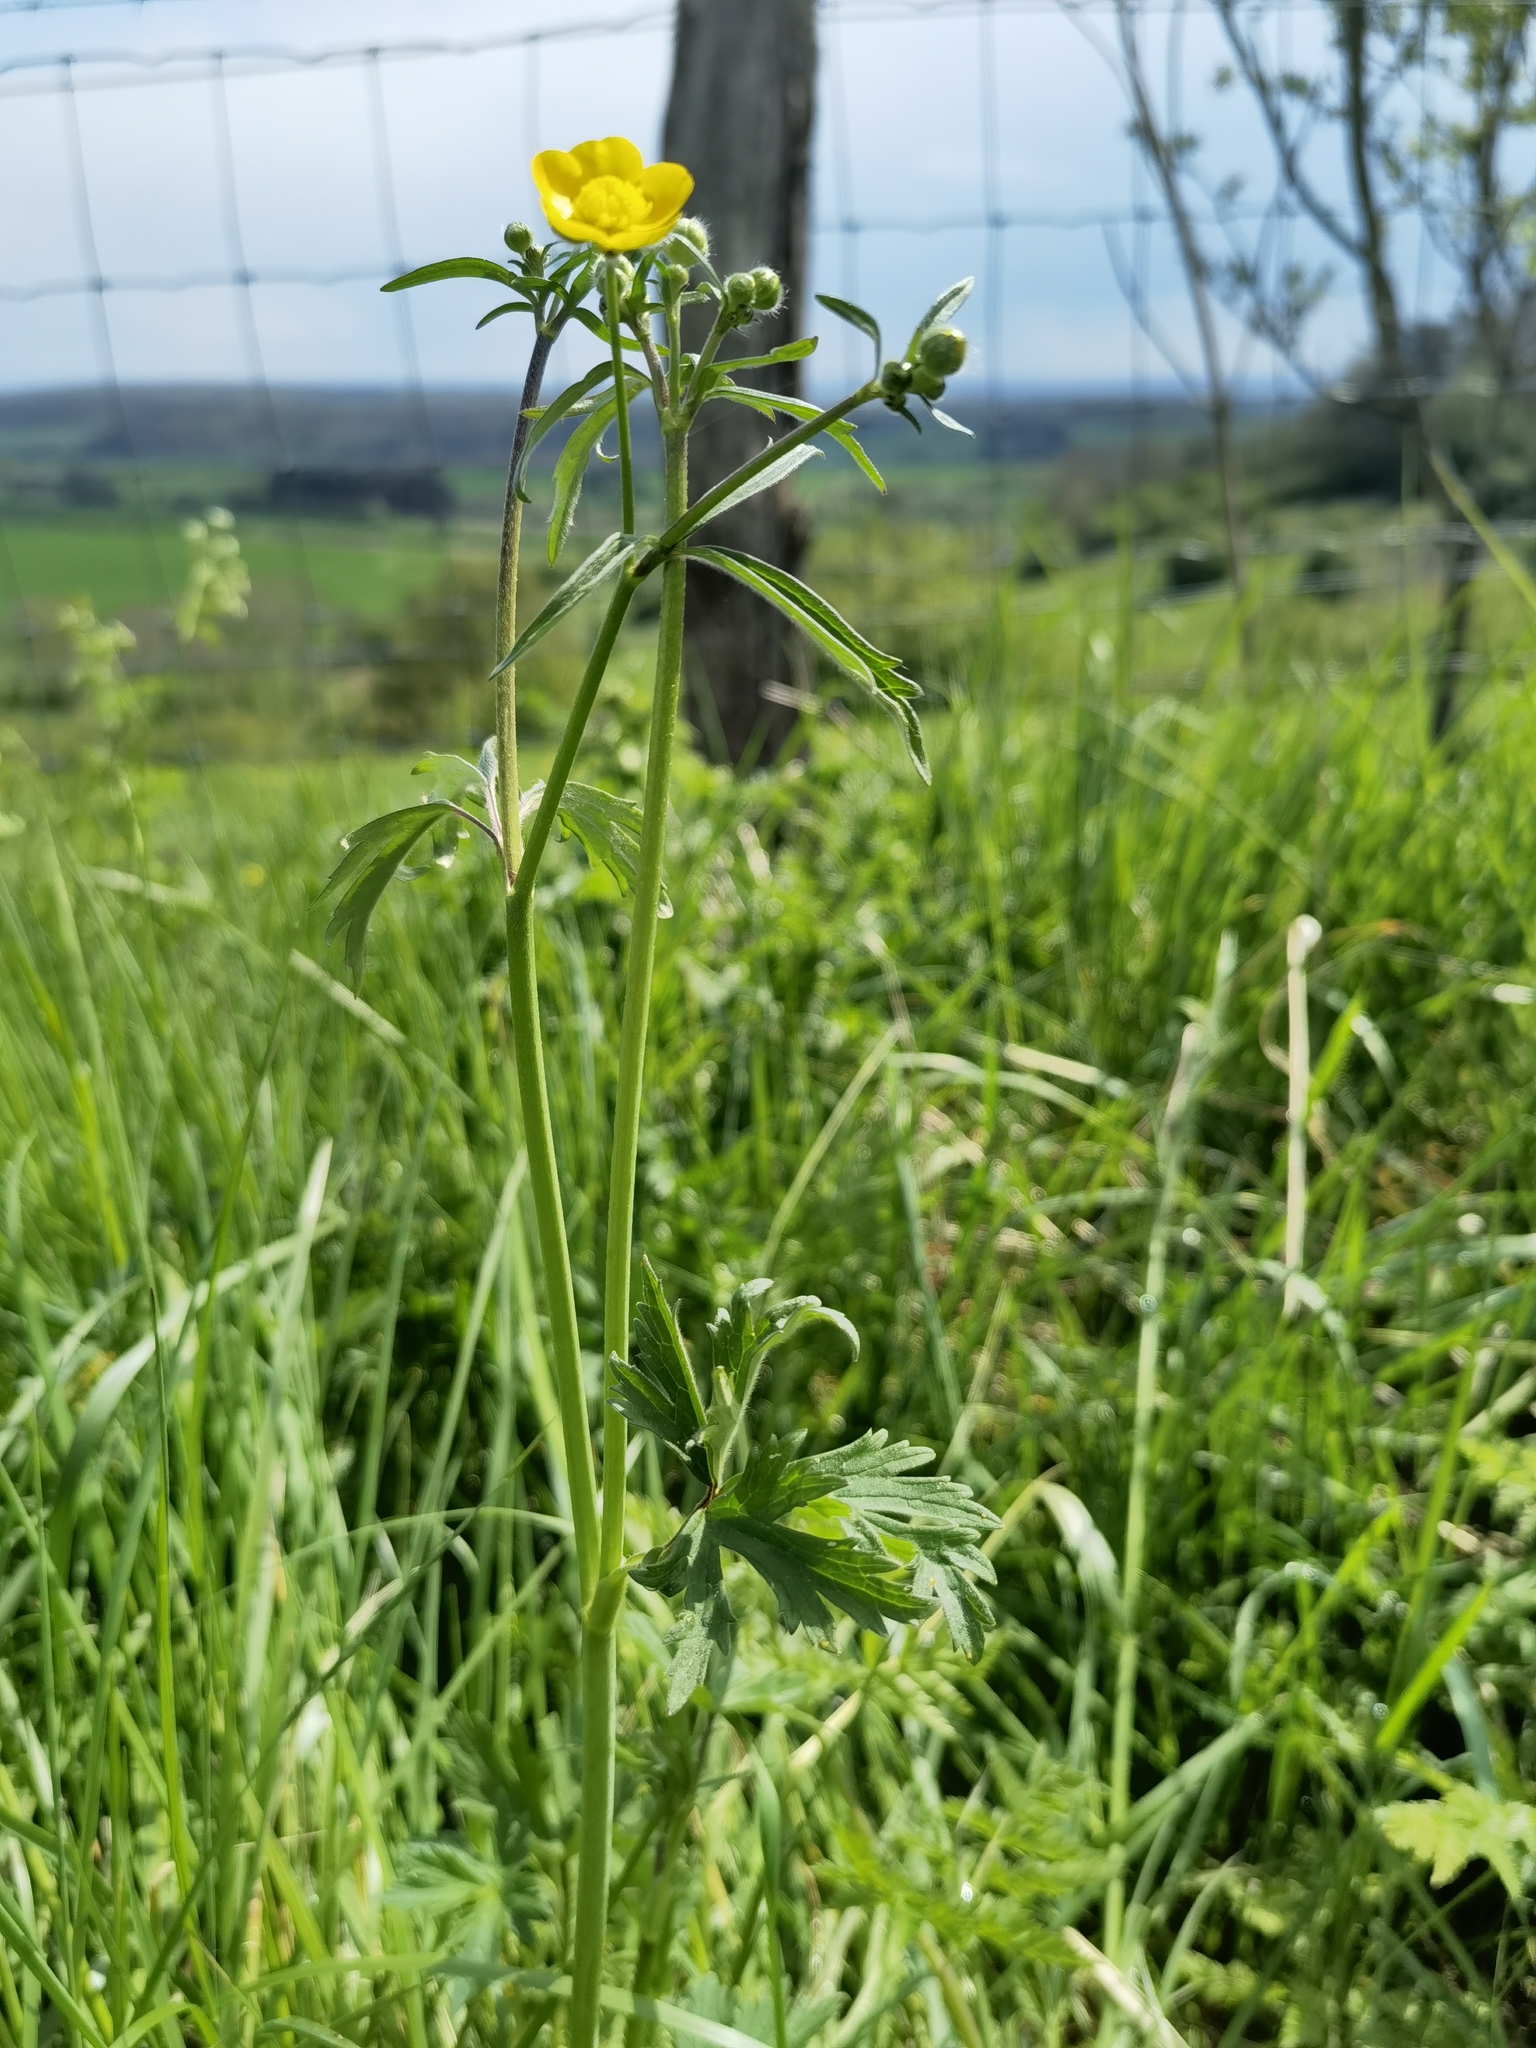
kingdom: Plantae
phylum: Tracheophyta
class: Magnoliopsida
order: Ranunculales
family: Ranunculaceae
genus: Ranunculus
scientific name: Ranunculus acris
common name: Meadow buttercup
